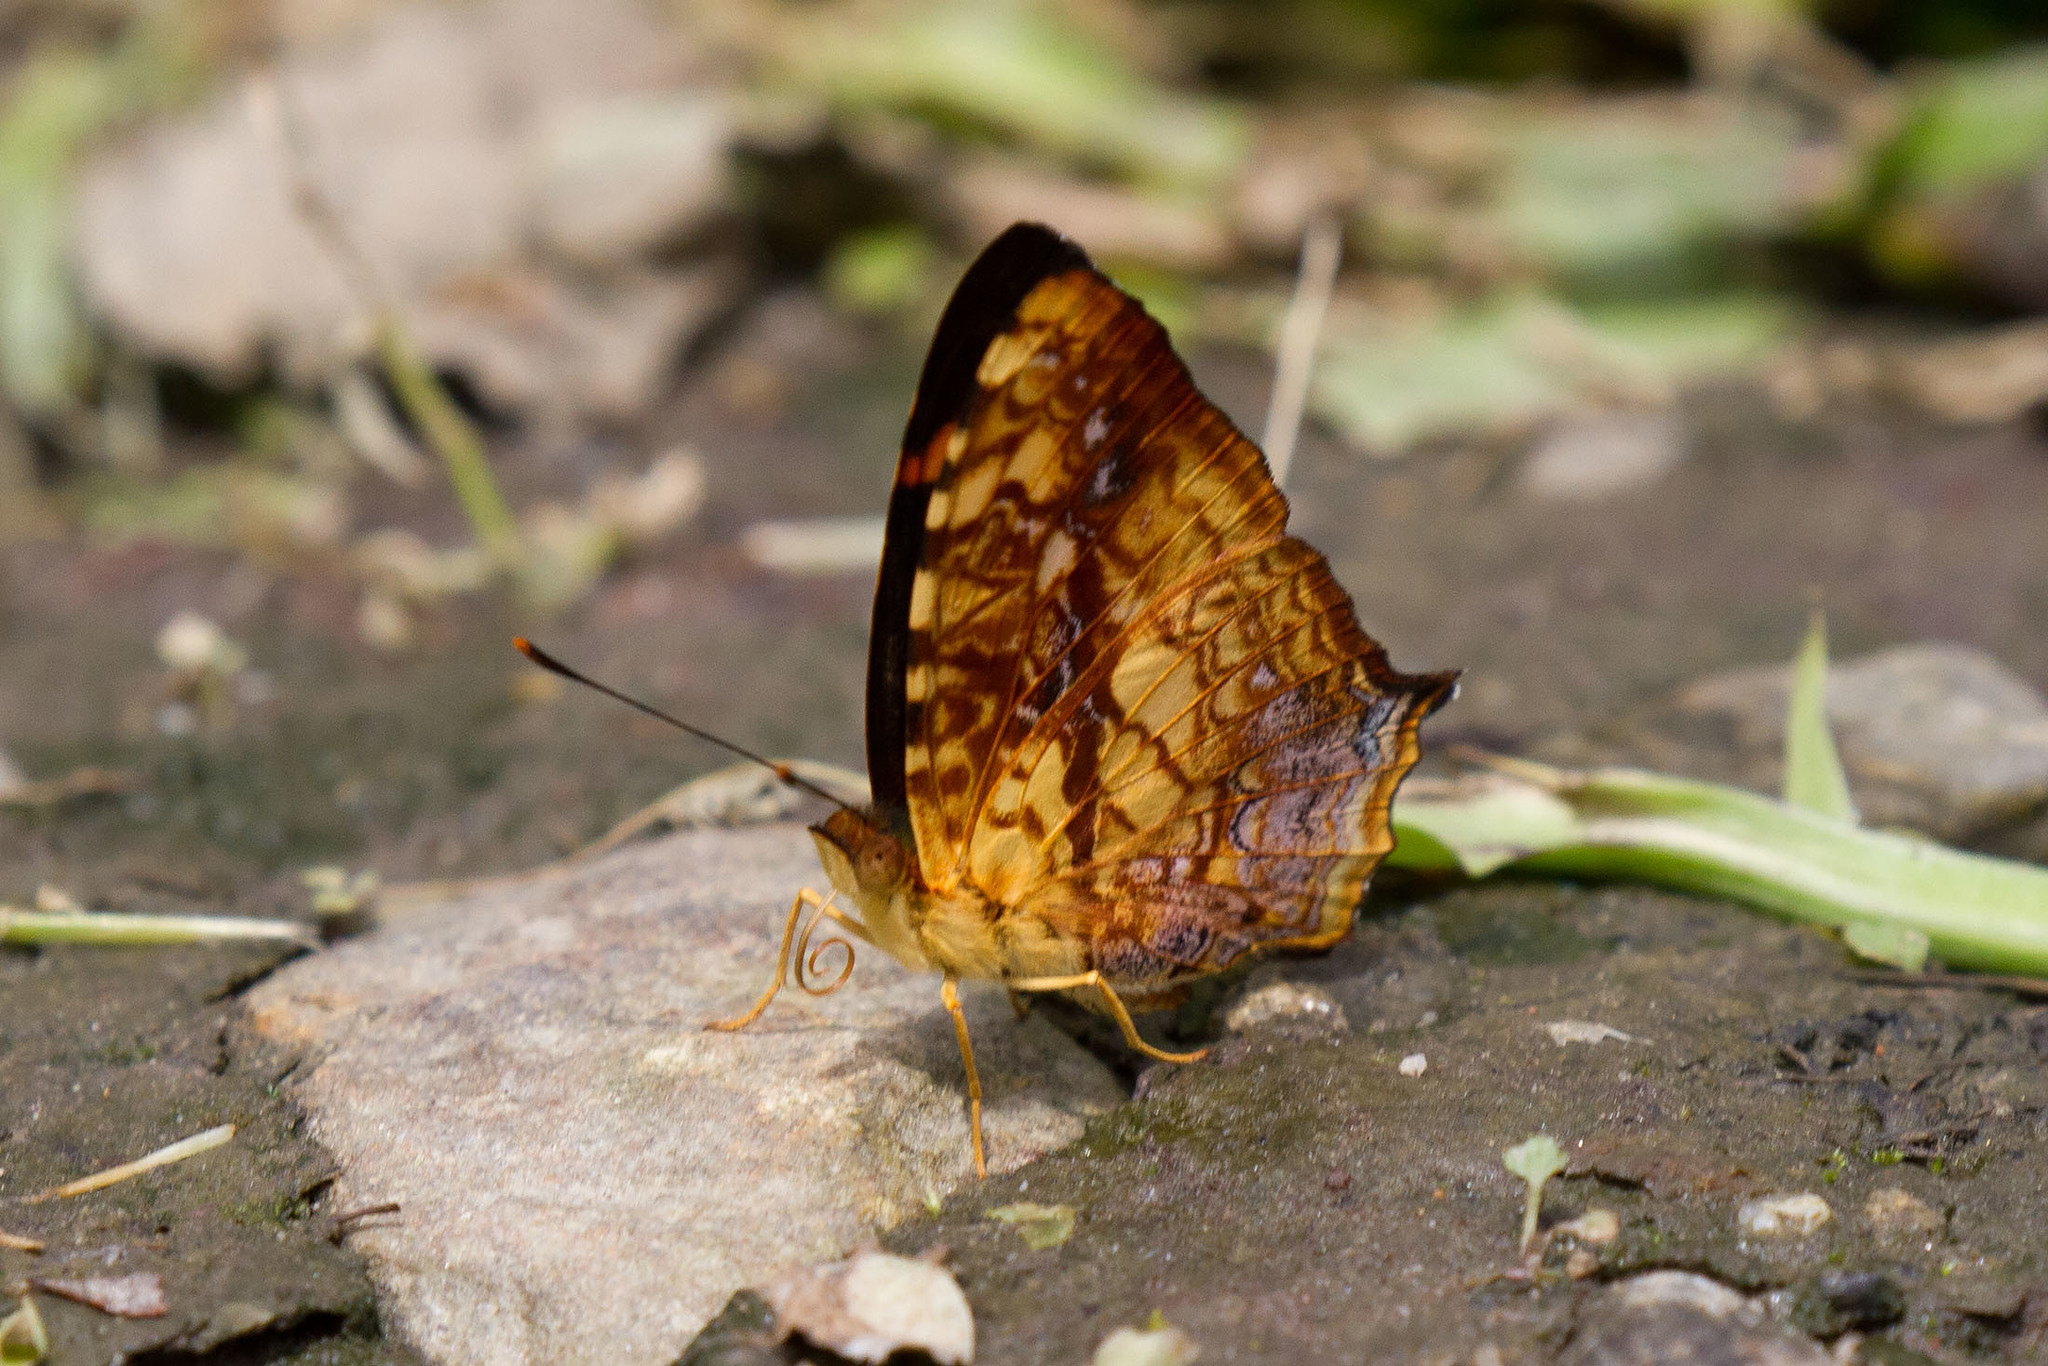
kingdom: Animalia
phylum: Arthropoda
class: Insecta
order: Lepidoptera
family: Nymphalidae
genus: Symbrenthia
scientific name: Symbrenthia hippoclus
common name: Common jester
